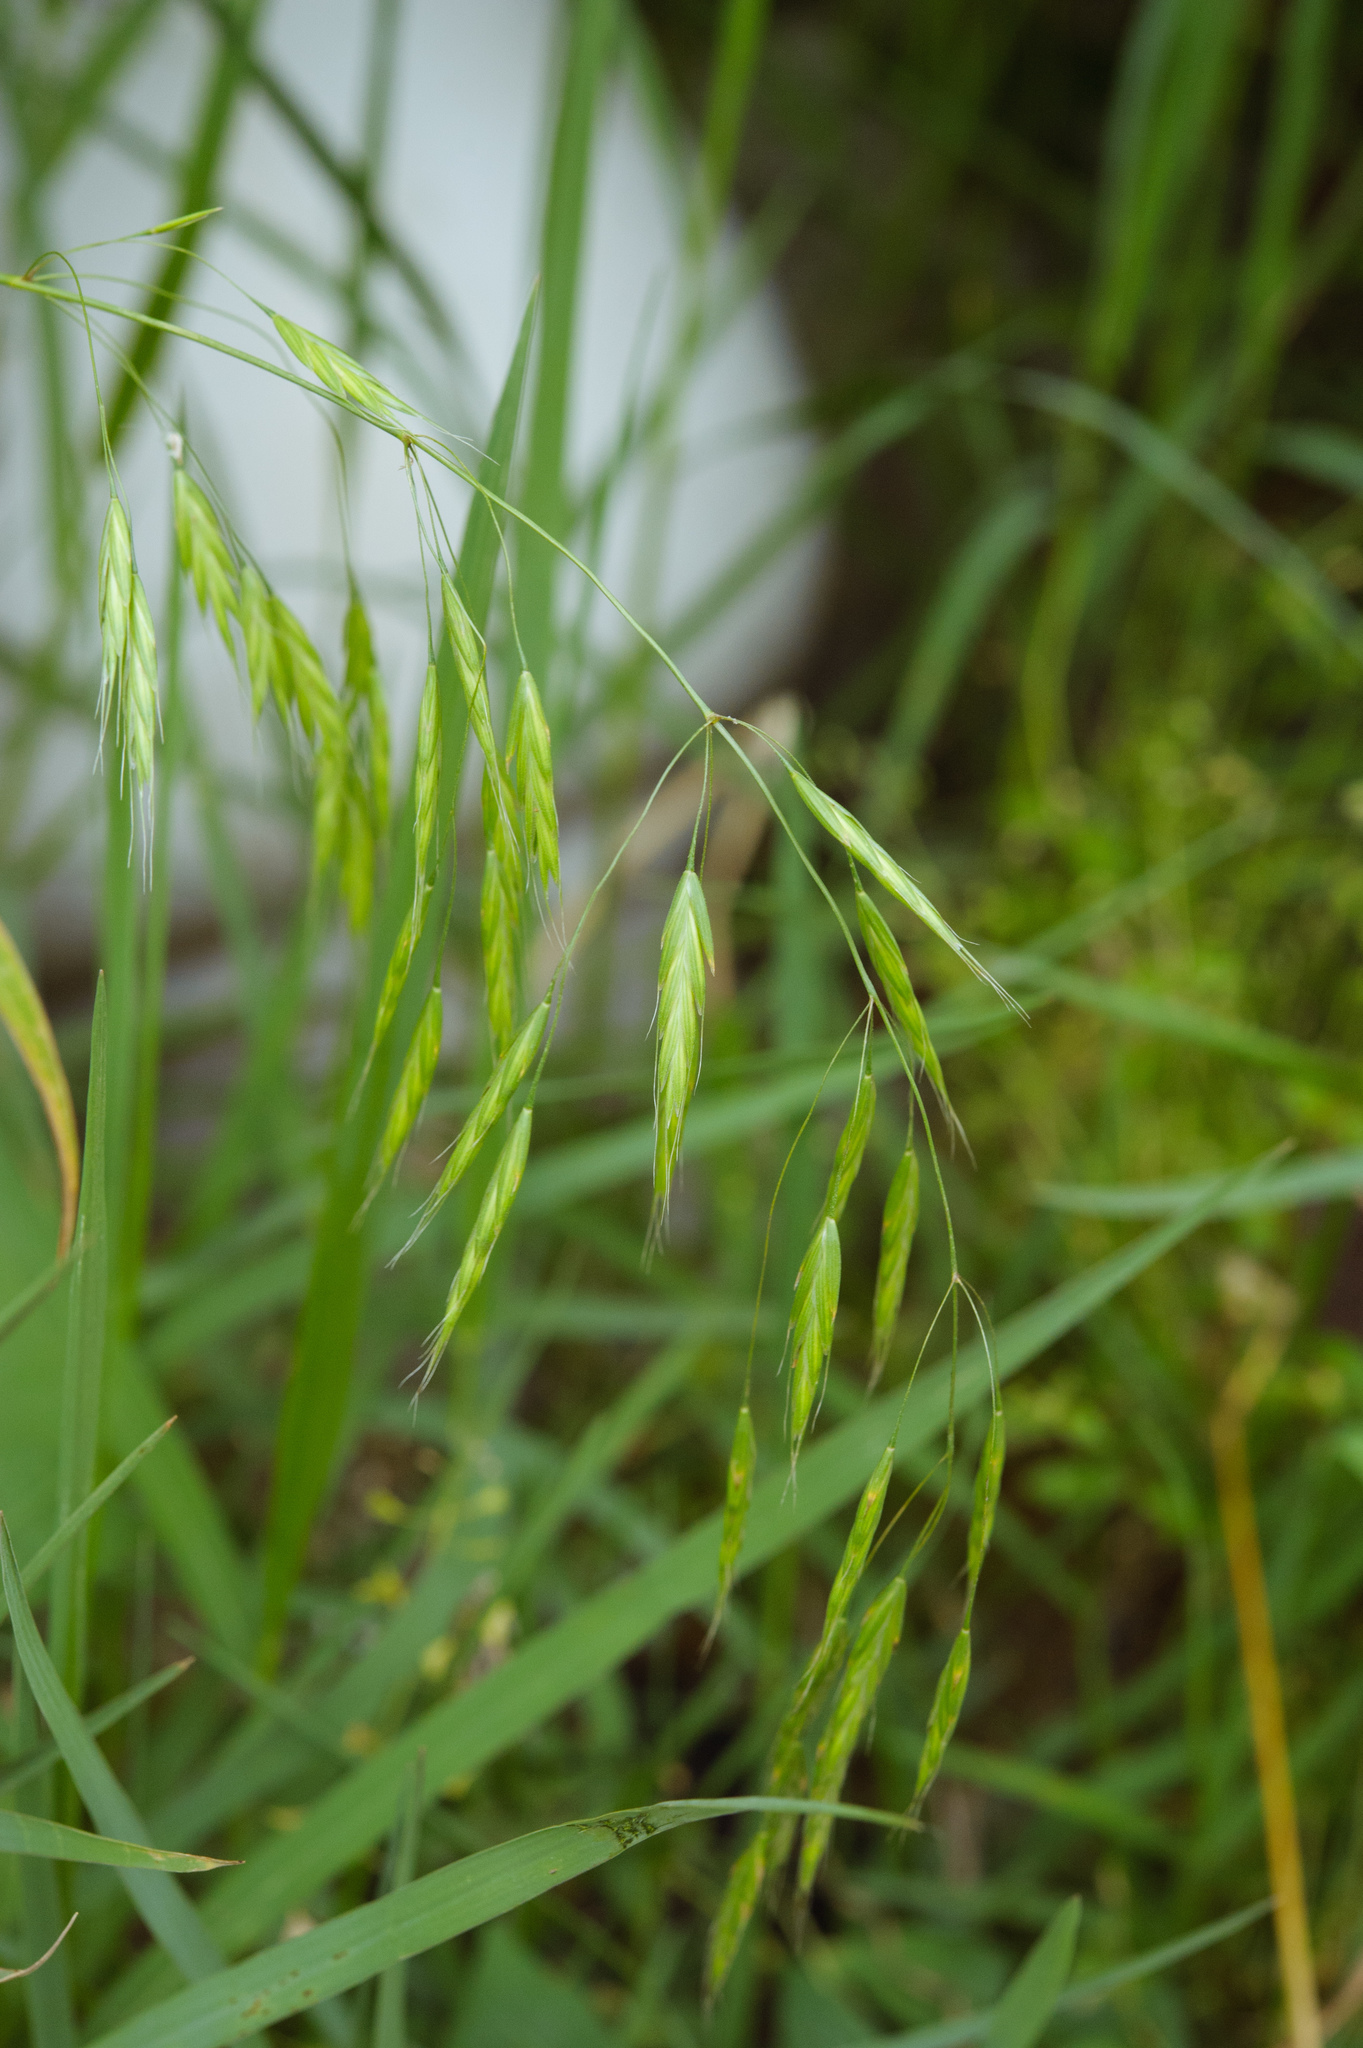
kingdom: Plantae
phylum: Tracheophyta
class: Liliopsida
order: Poales
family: Poaceae
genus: Bromus
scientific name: Bromus commutatus
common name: Meadow brome
